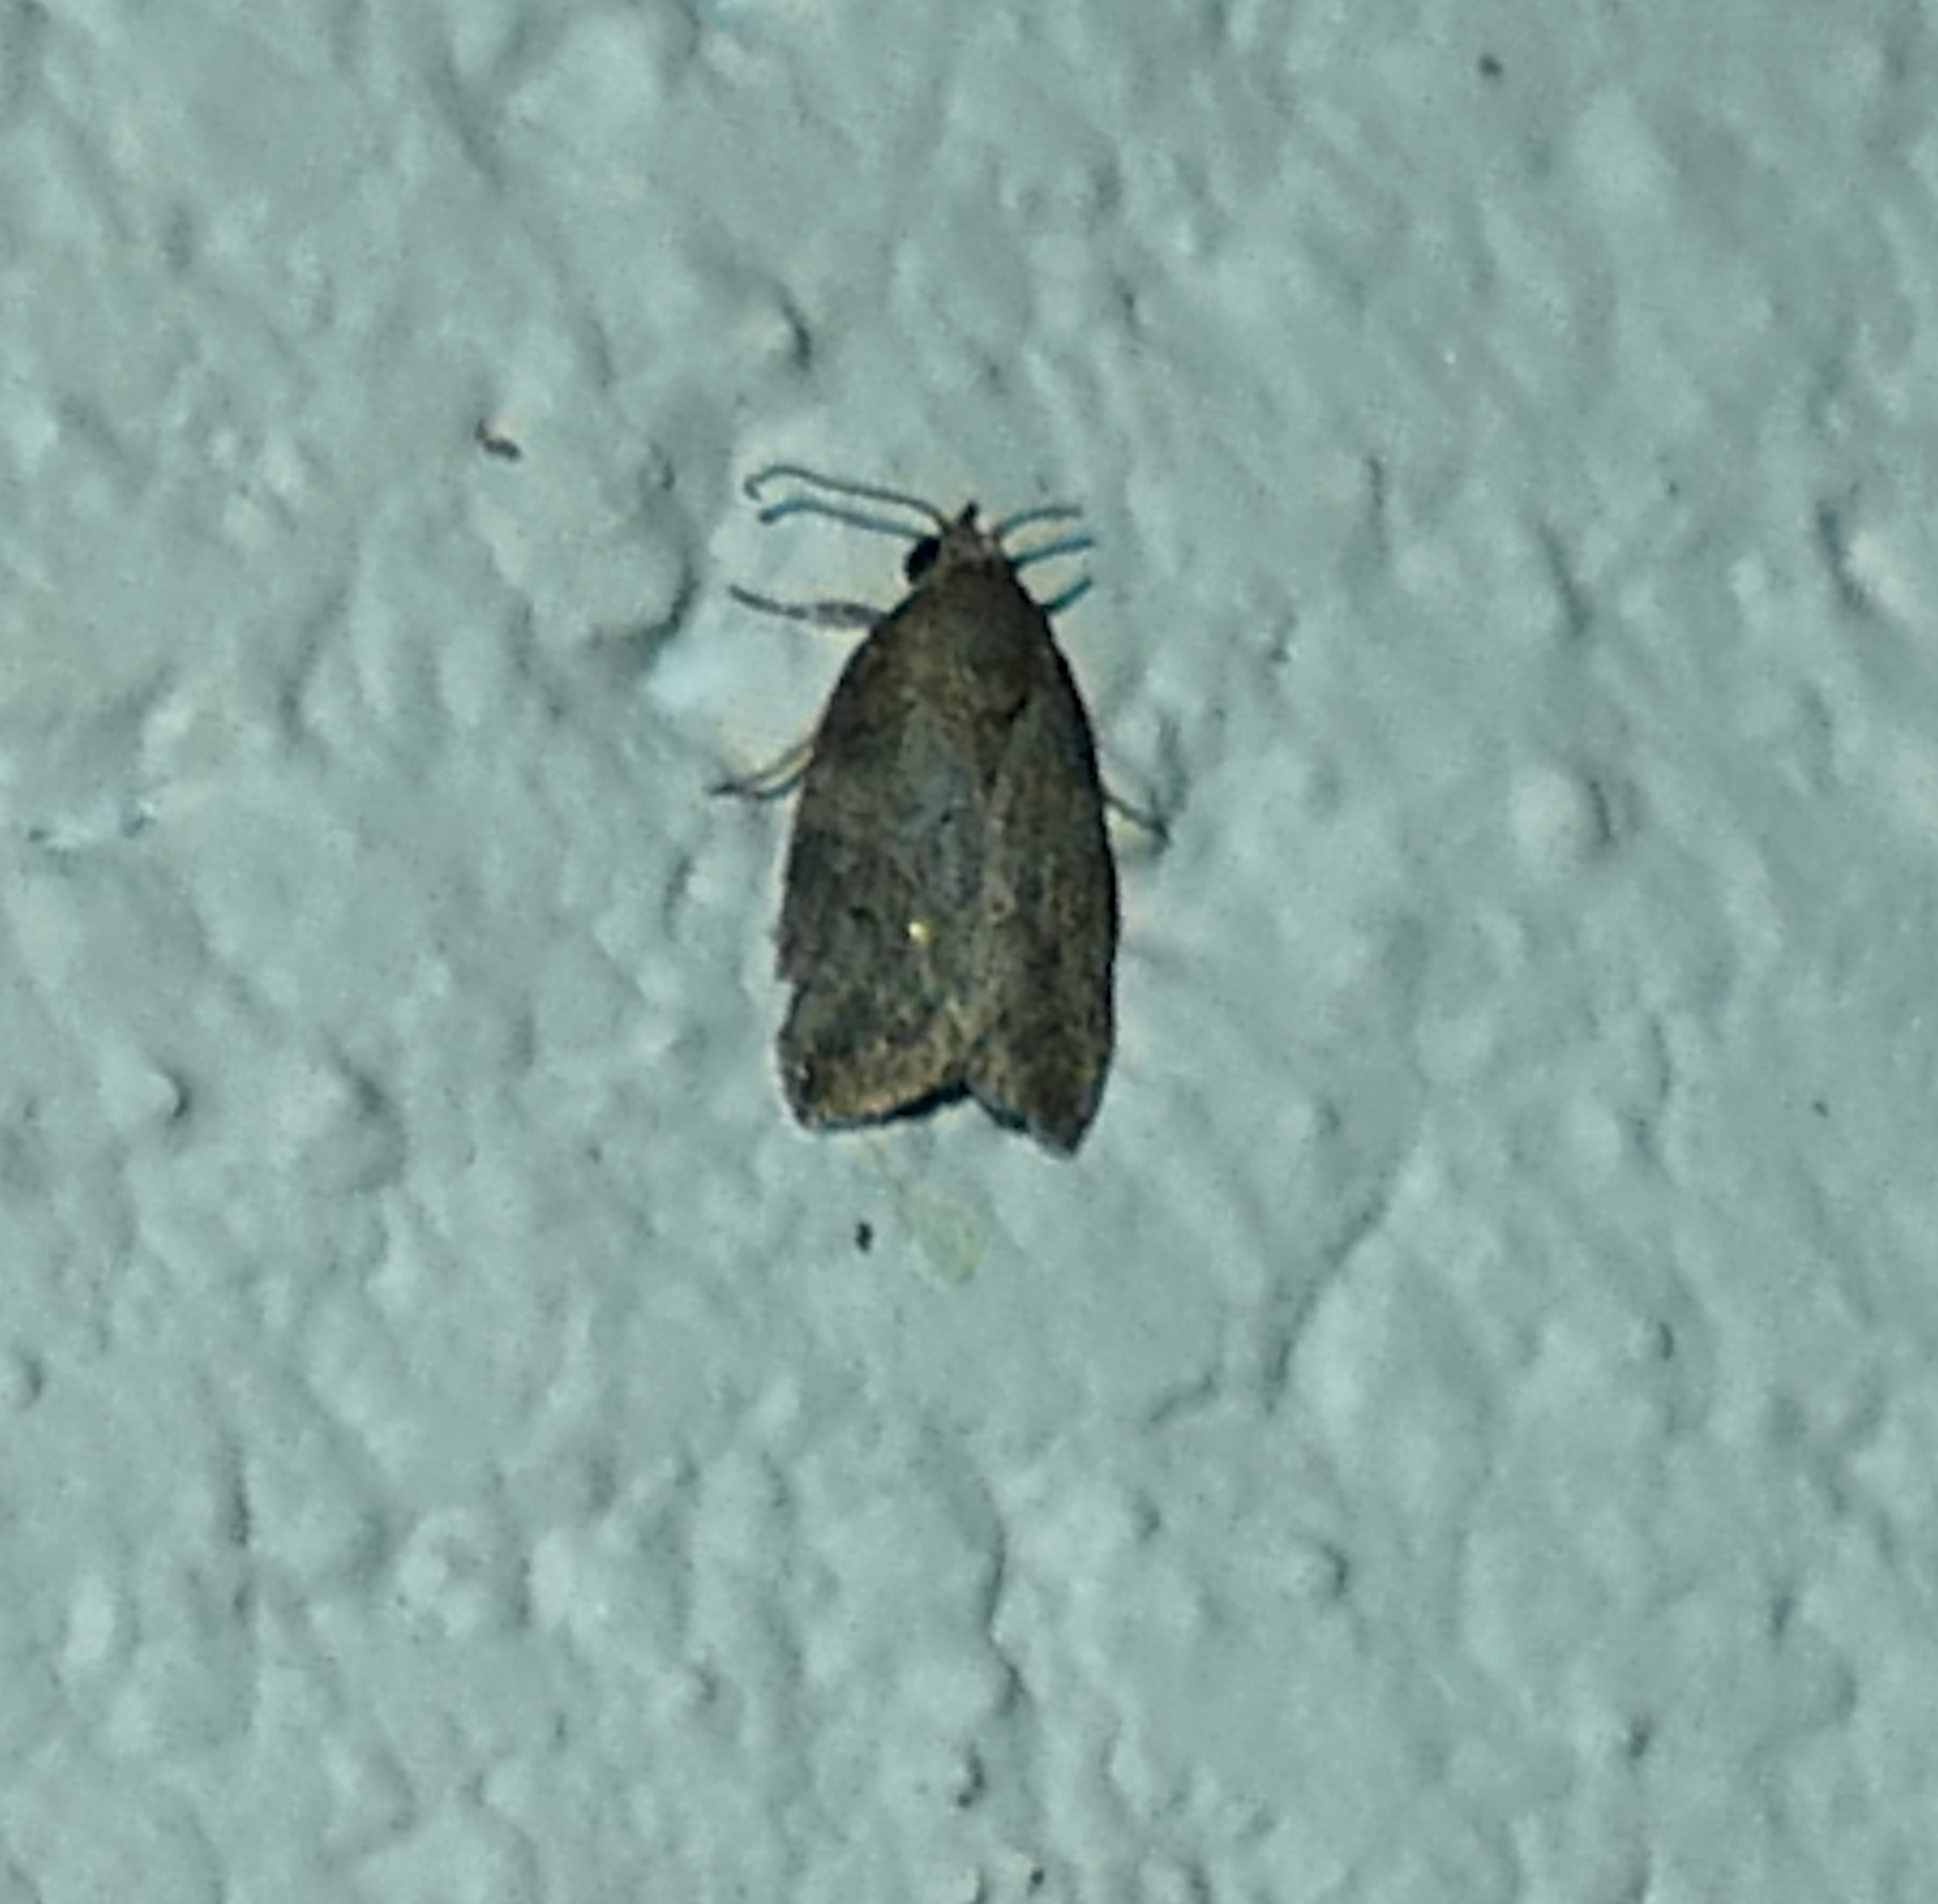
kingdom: Animalia
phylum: Arthropoda
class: Insecta
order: Lepidoptera
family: Nolidae
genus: Garella
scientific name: Garella nilotica
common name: Black-olive caterpillar moth
